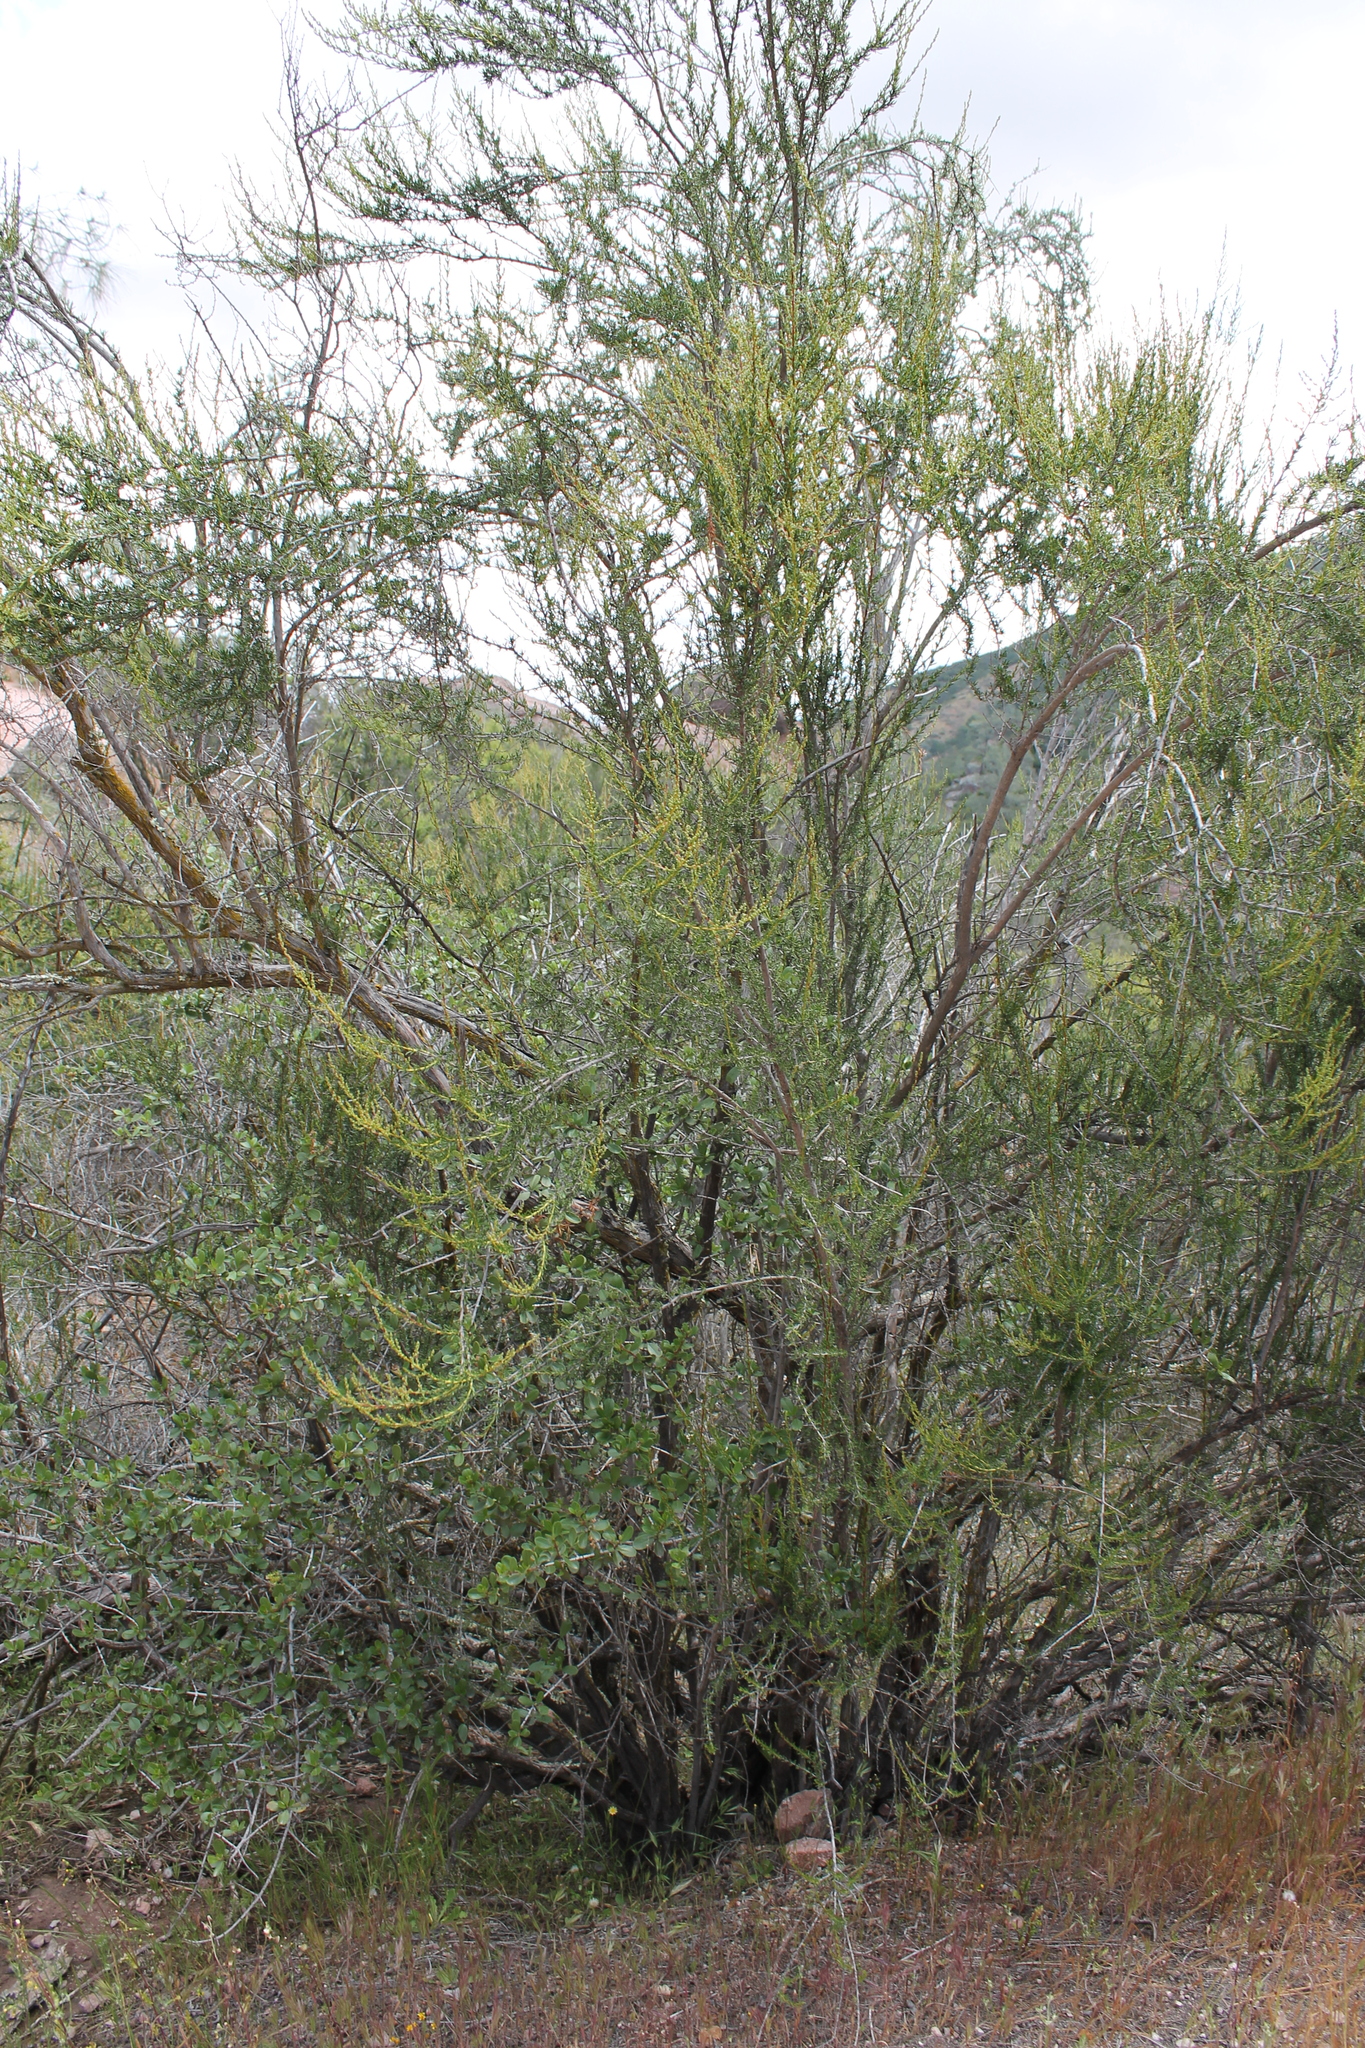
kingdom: Plantae
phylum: Tracheophyta
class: Magnoliopsida
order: Rosales
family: Rosaceae
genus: Adenostoma
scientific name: Adenostoma fasciculatum
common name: Chamise
